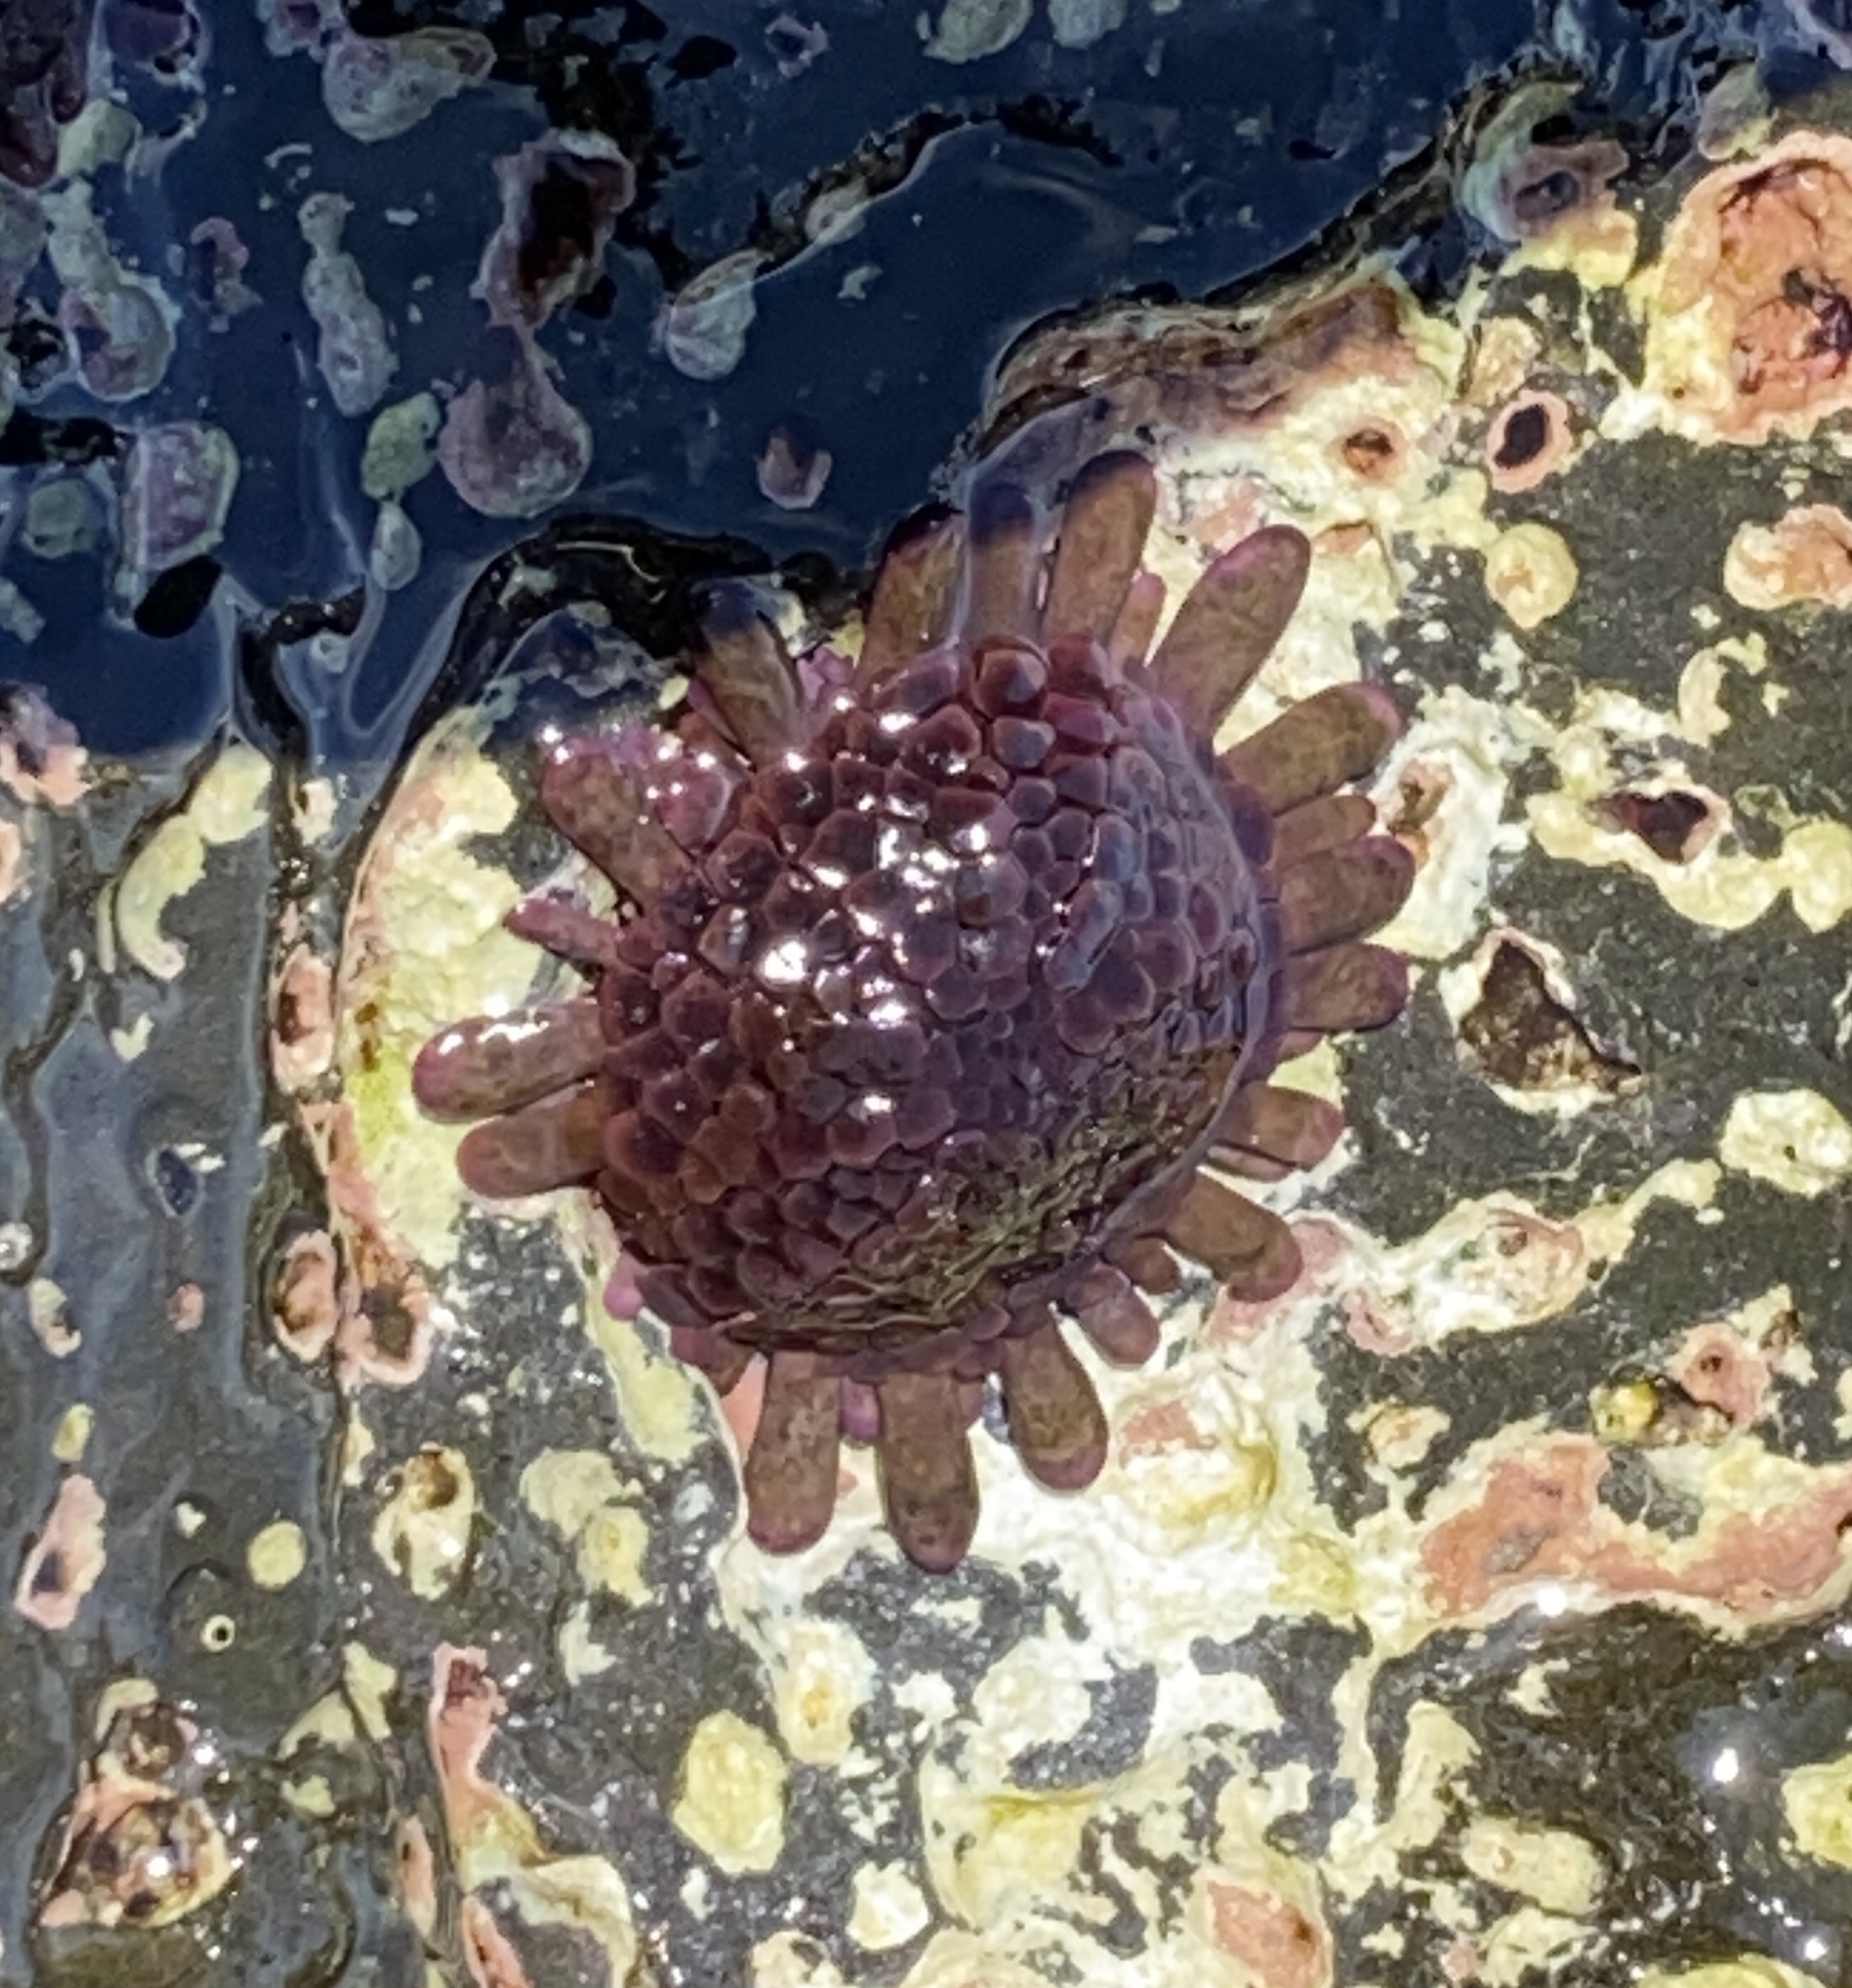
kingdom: Animalia
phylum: Echinodermata
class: Echinoidea
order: Camarodonta
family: Echinometridae
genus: Colobocentrotus
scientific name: Colobocentrotus atratus
